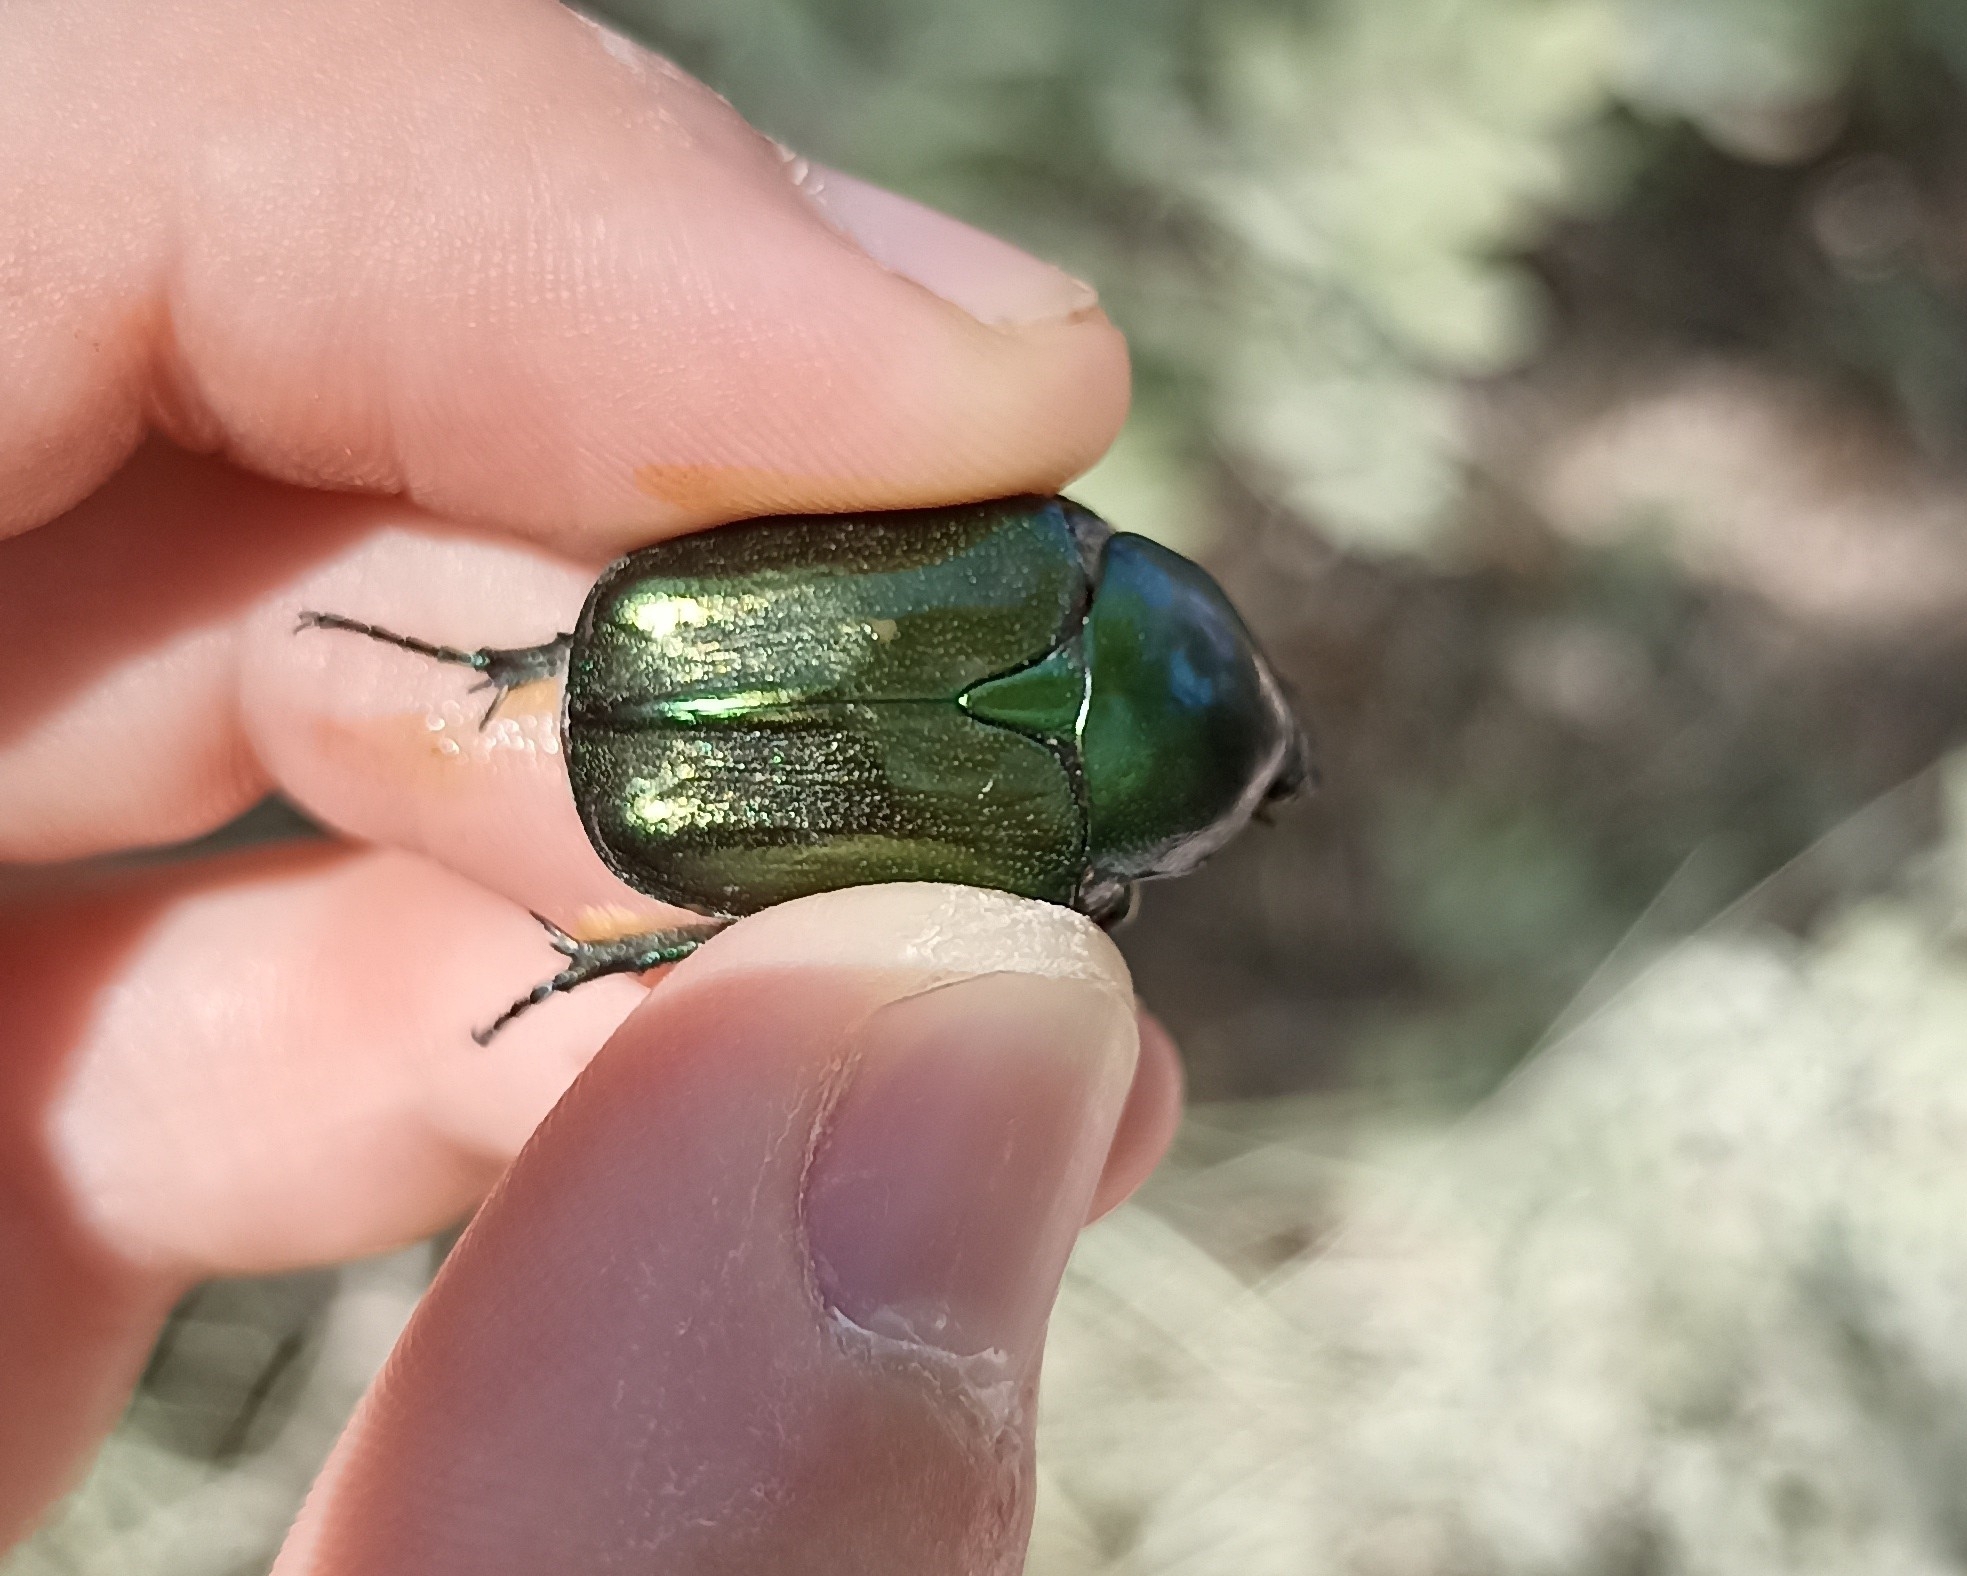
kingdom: Animalia
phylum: Arthropoda
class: Insecta
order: Coleoptera
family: Scarabaeidae
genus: Protaetia
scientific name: Protaetia angustata
